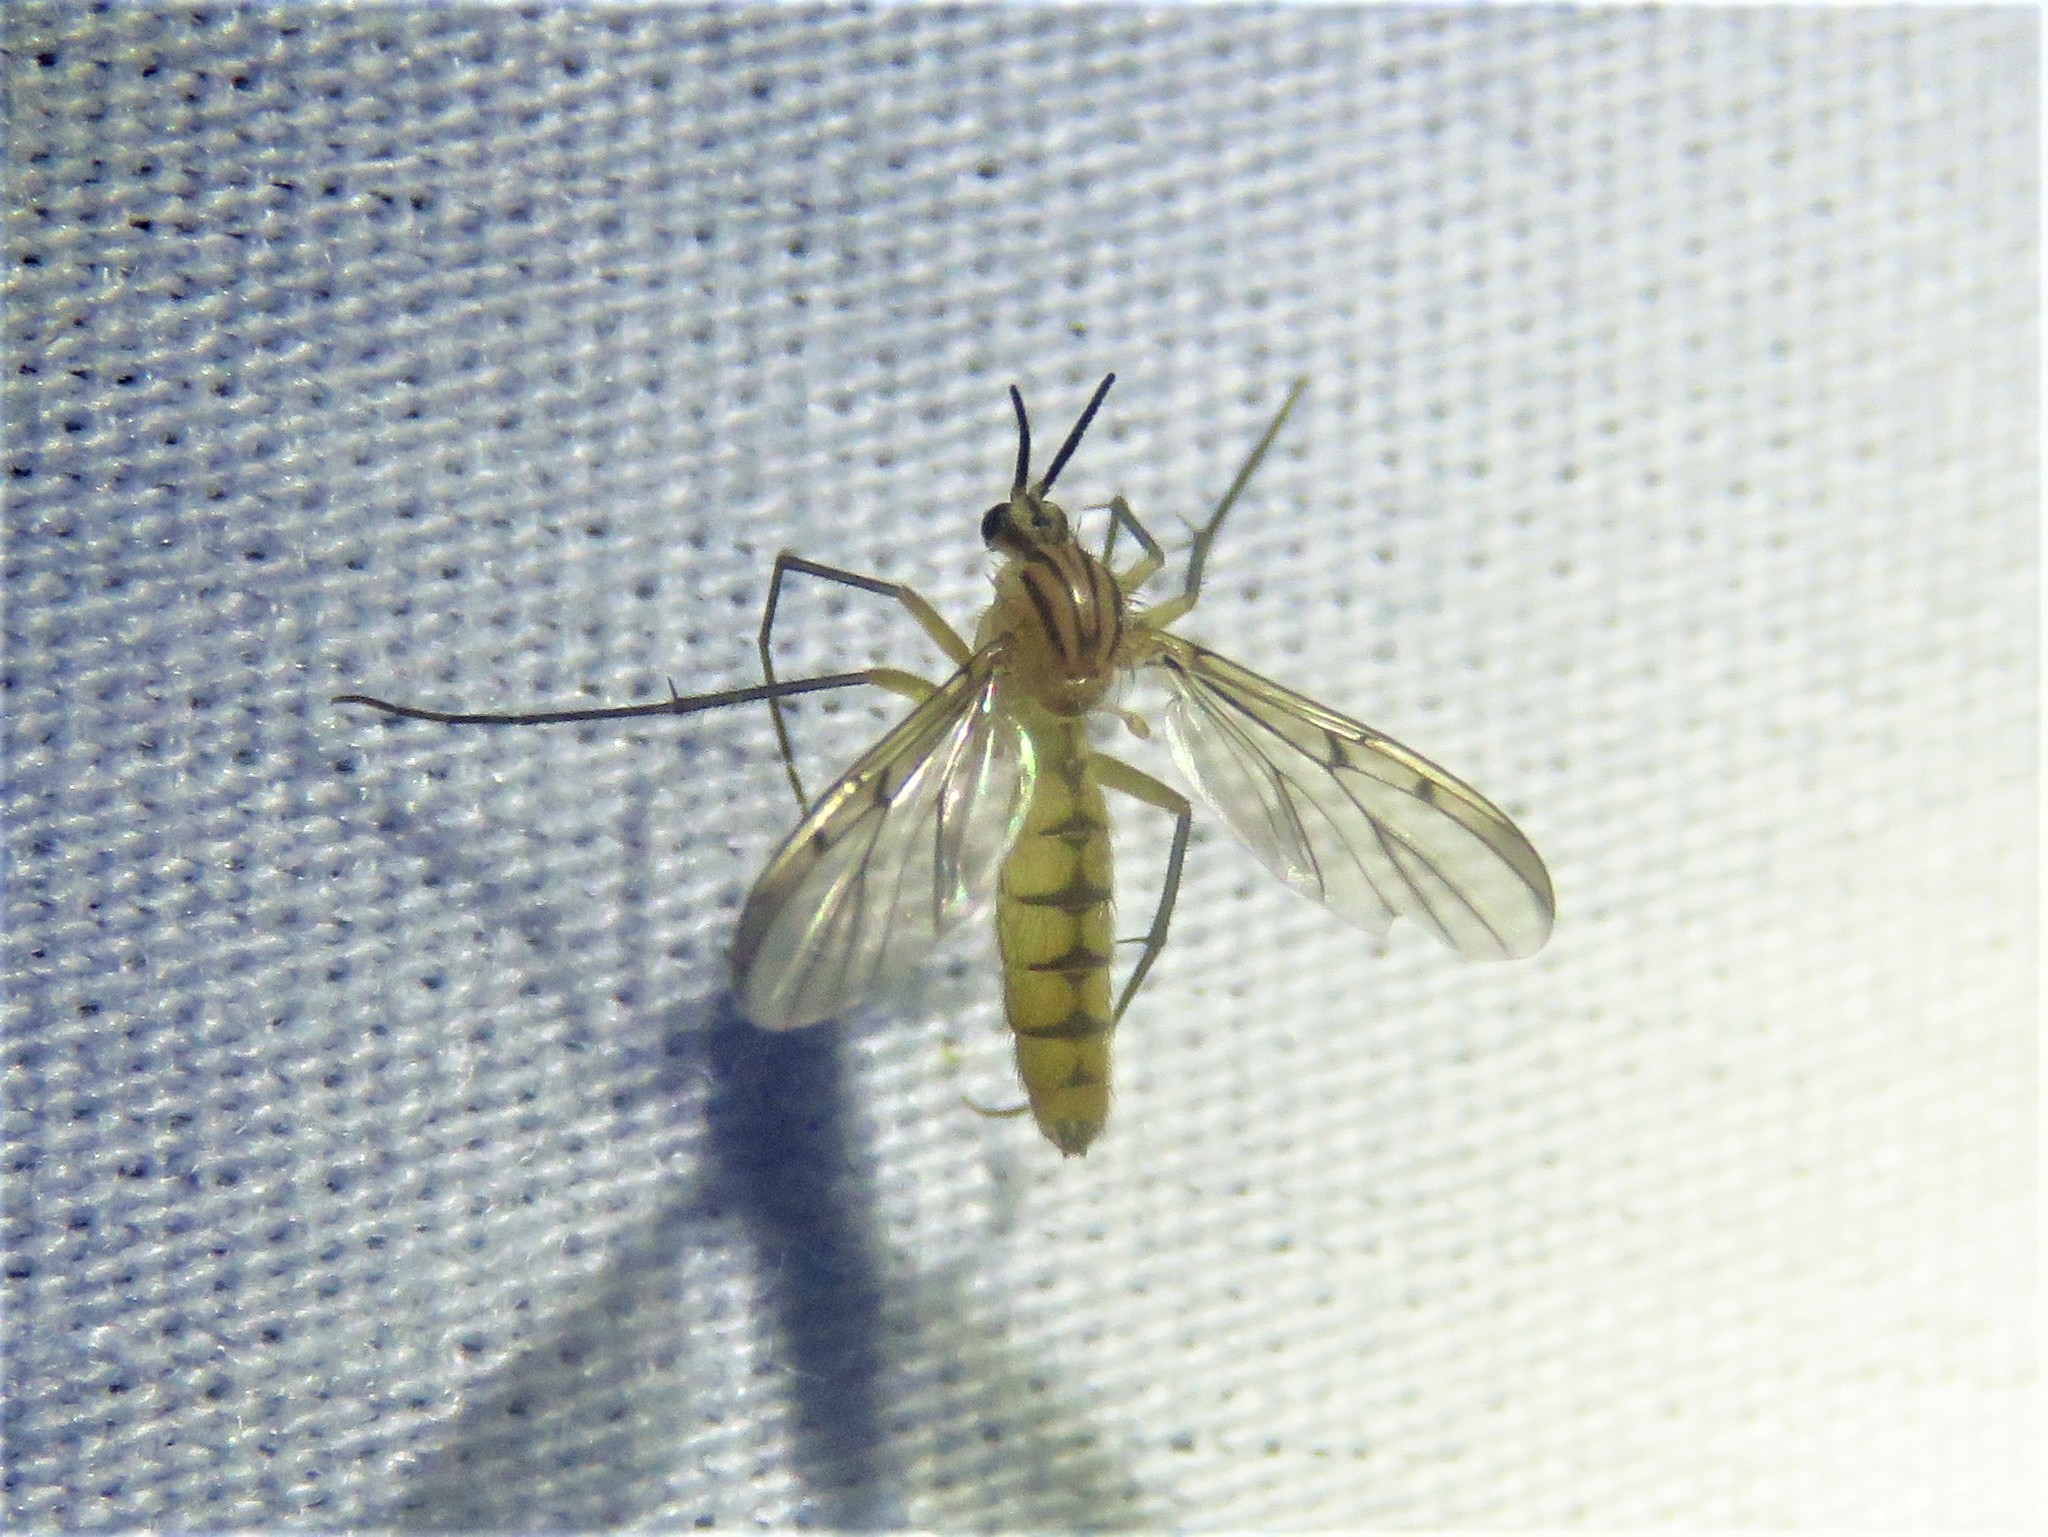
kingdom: Animalia
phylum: Arthropoda
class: Insecta
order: Diptera
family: Mycetophilidae
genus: Neoempheria
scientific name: Neoempheria balioptera
